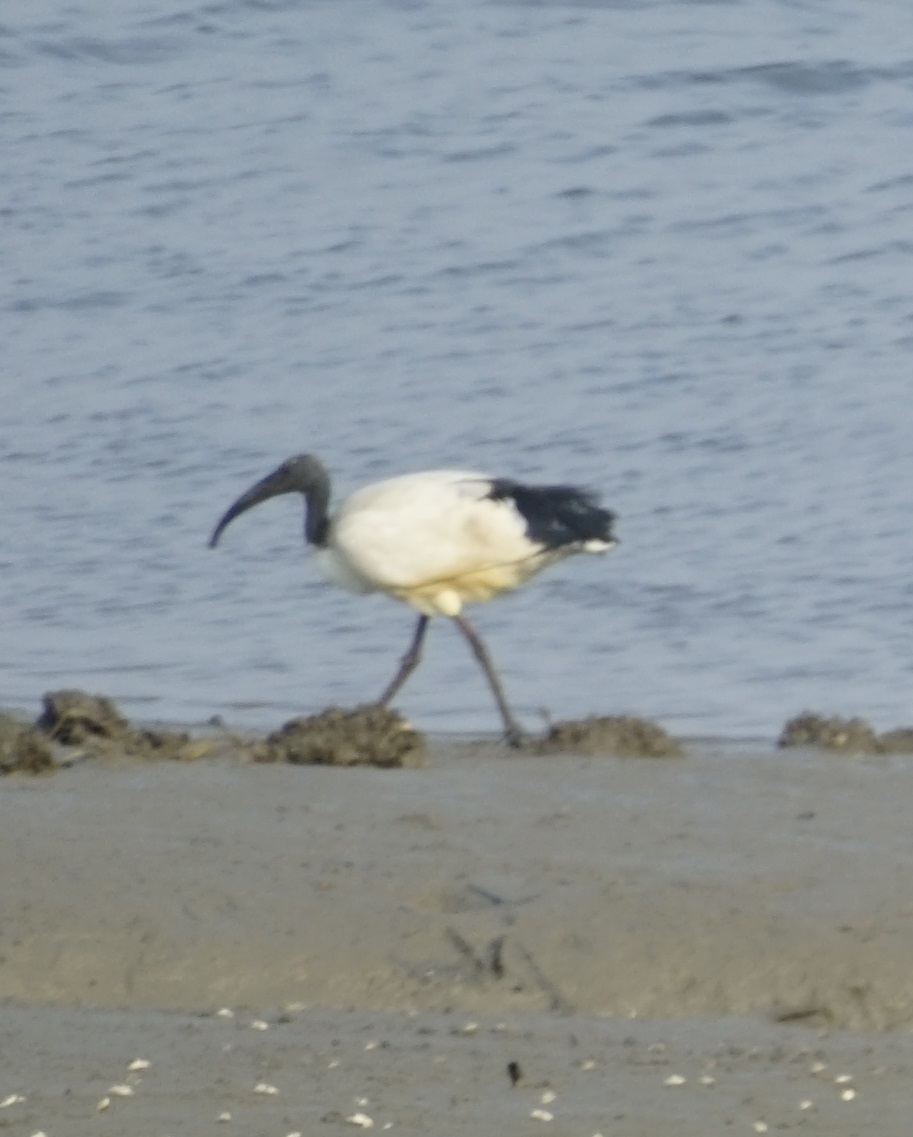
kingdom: Animalia
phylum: Chordata
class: Aves
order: Pelecaniformes
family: Threskiornithidae
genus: Threskiornis
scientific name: Threskiornis aethiopicus
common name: Sacred ibis
